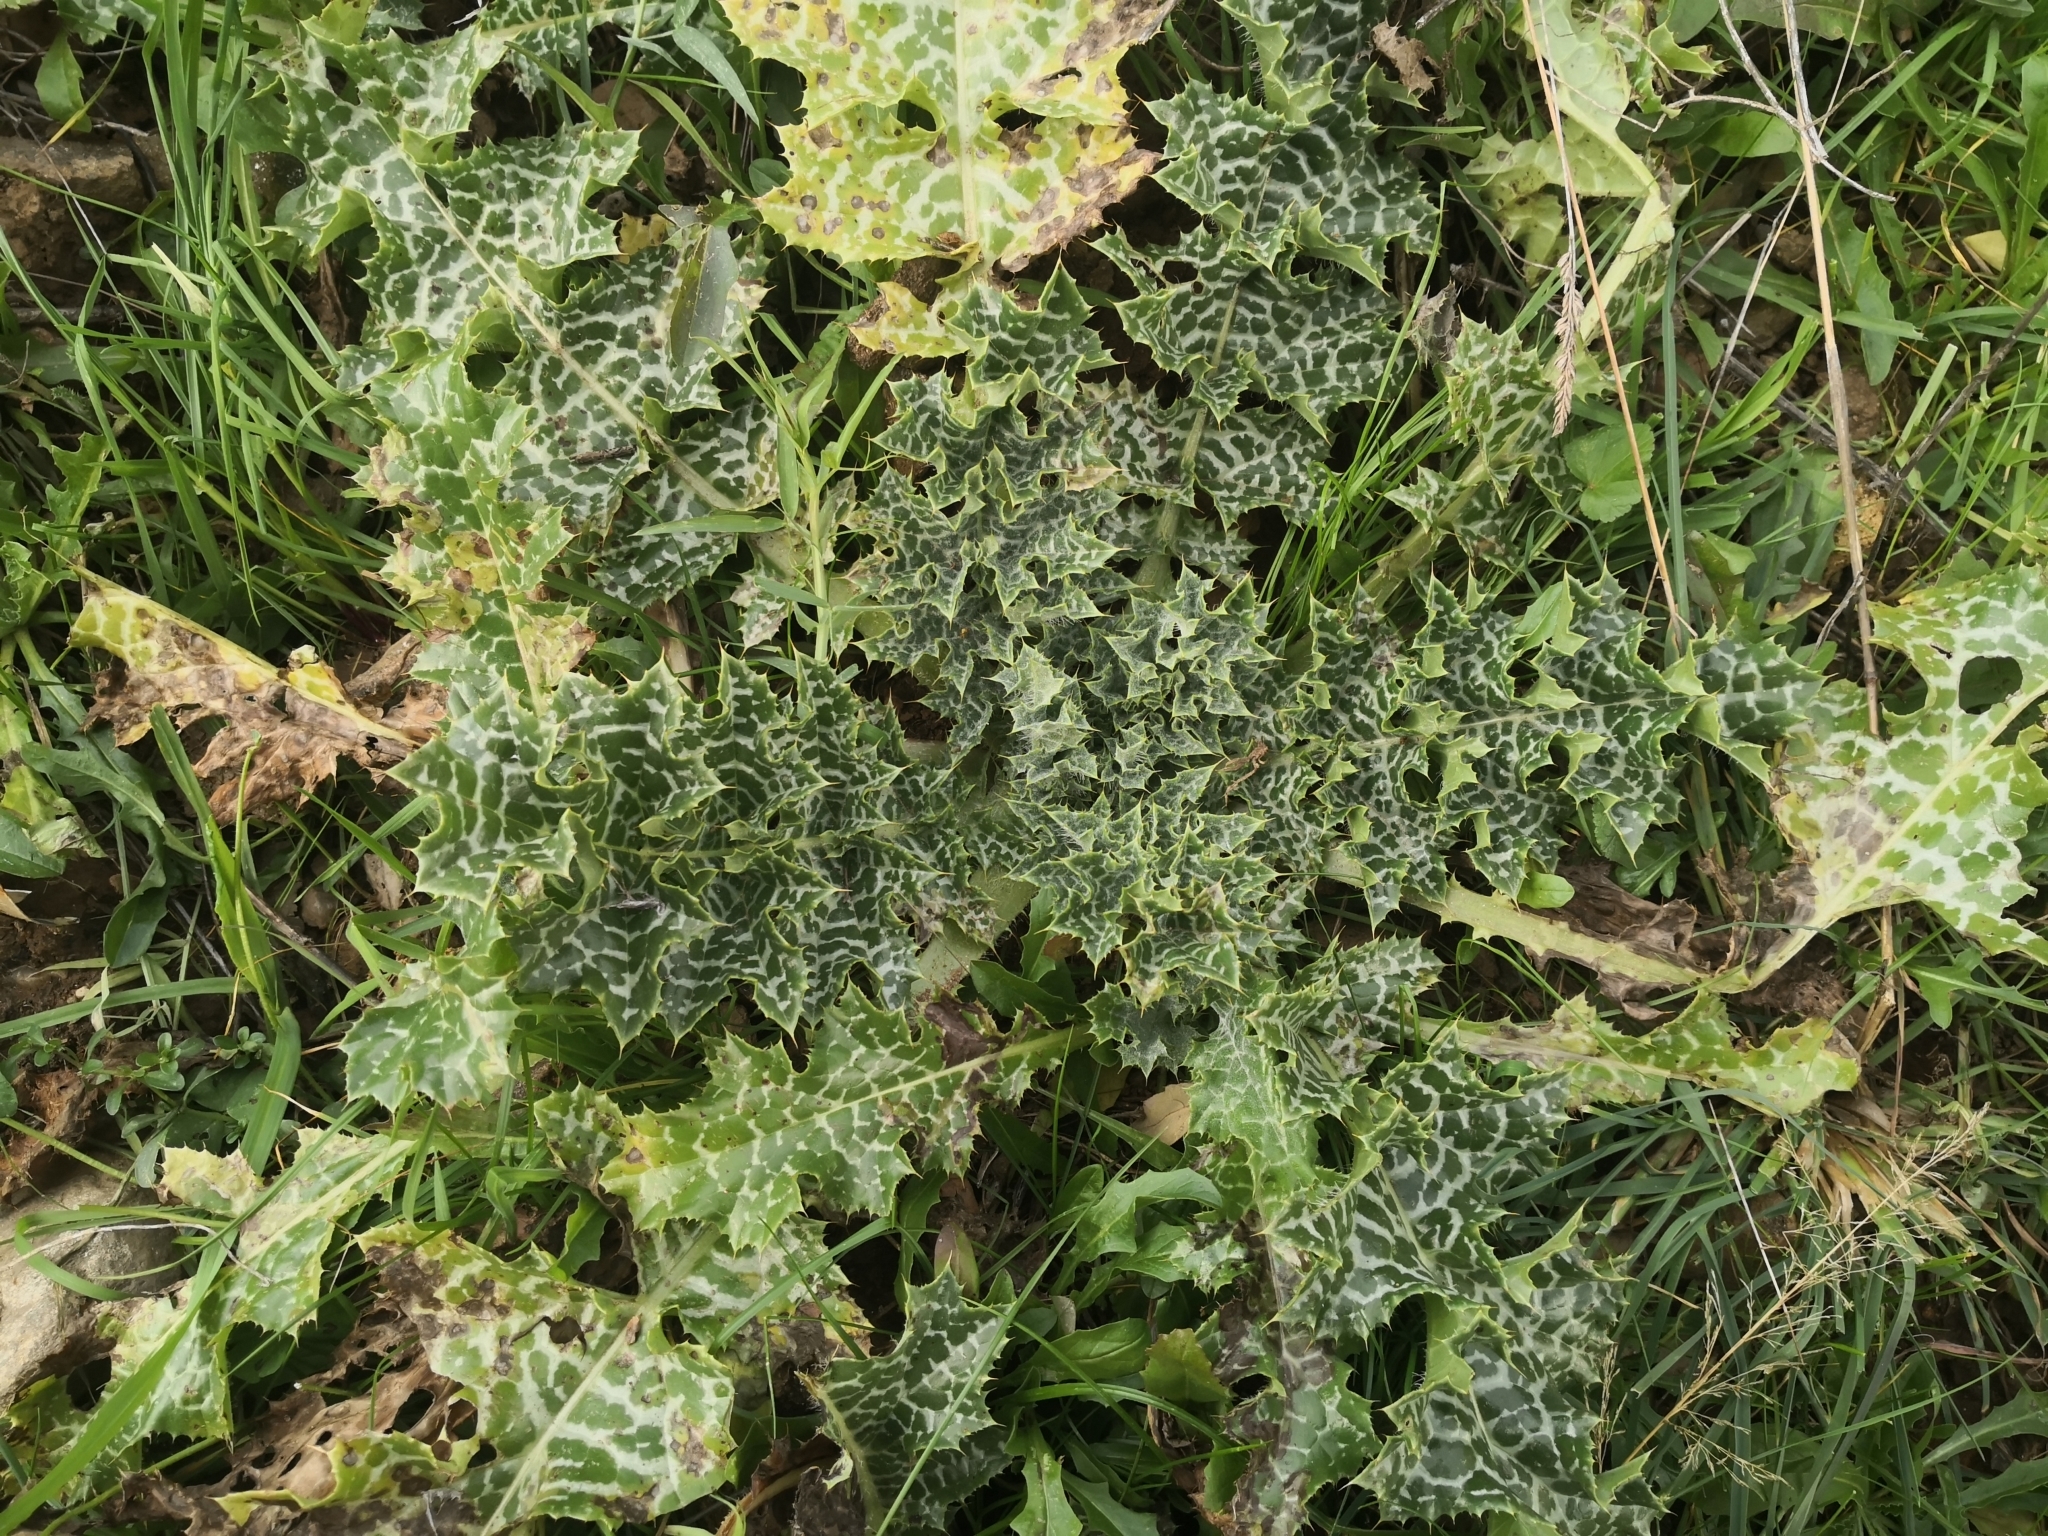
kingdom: Plantae
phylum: Tracheophyta
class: Magnoliopsida
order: Asterales
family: Asteraceae
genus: Silybum
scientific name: Silybum marianum
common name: Milk thistle
